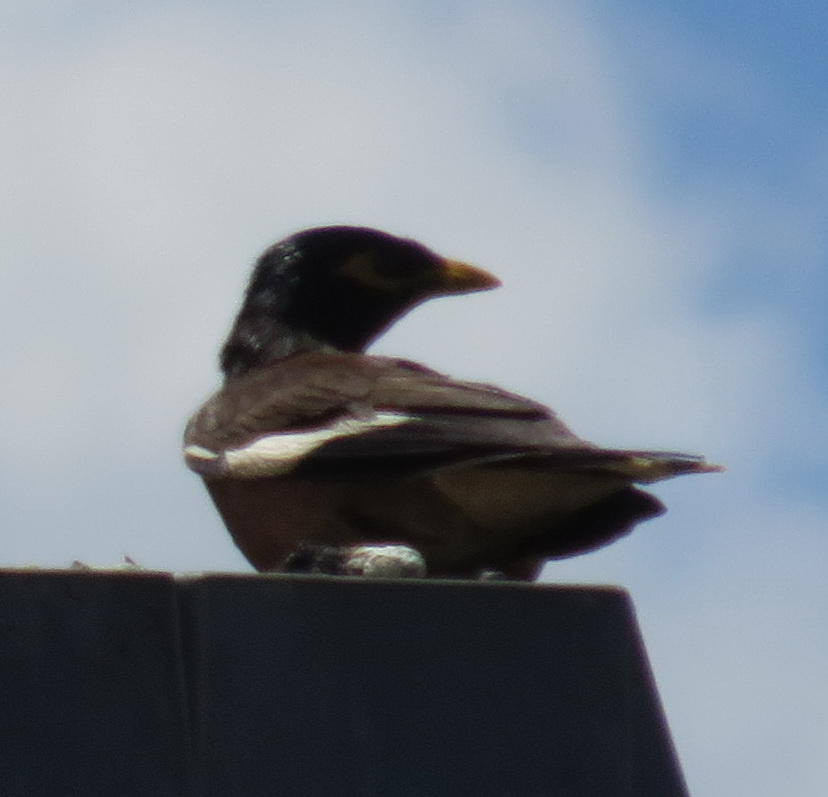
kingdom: Animalia
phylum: Chordata
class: Aves
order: Passeriformes
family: Sturnidae
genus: Acridotheres
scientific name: Acridotheres tristis
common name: Common myna
